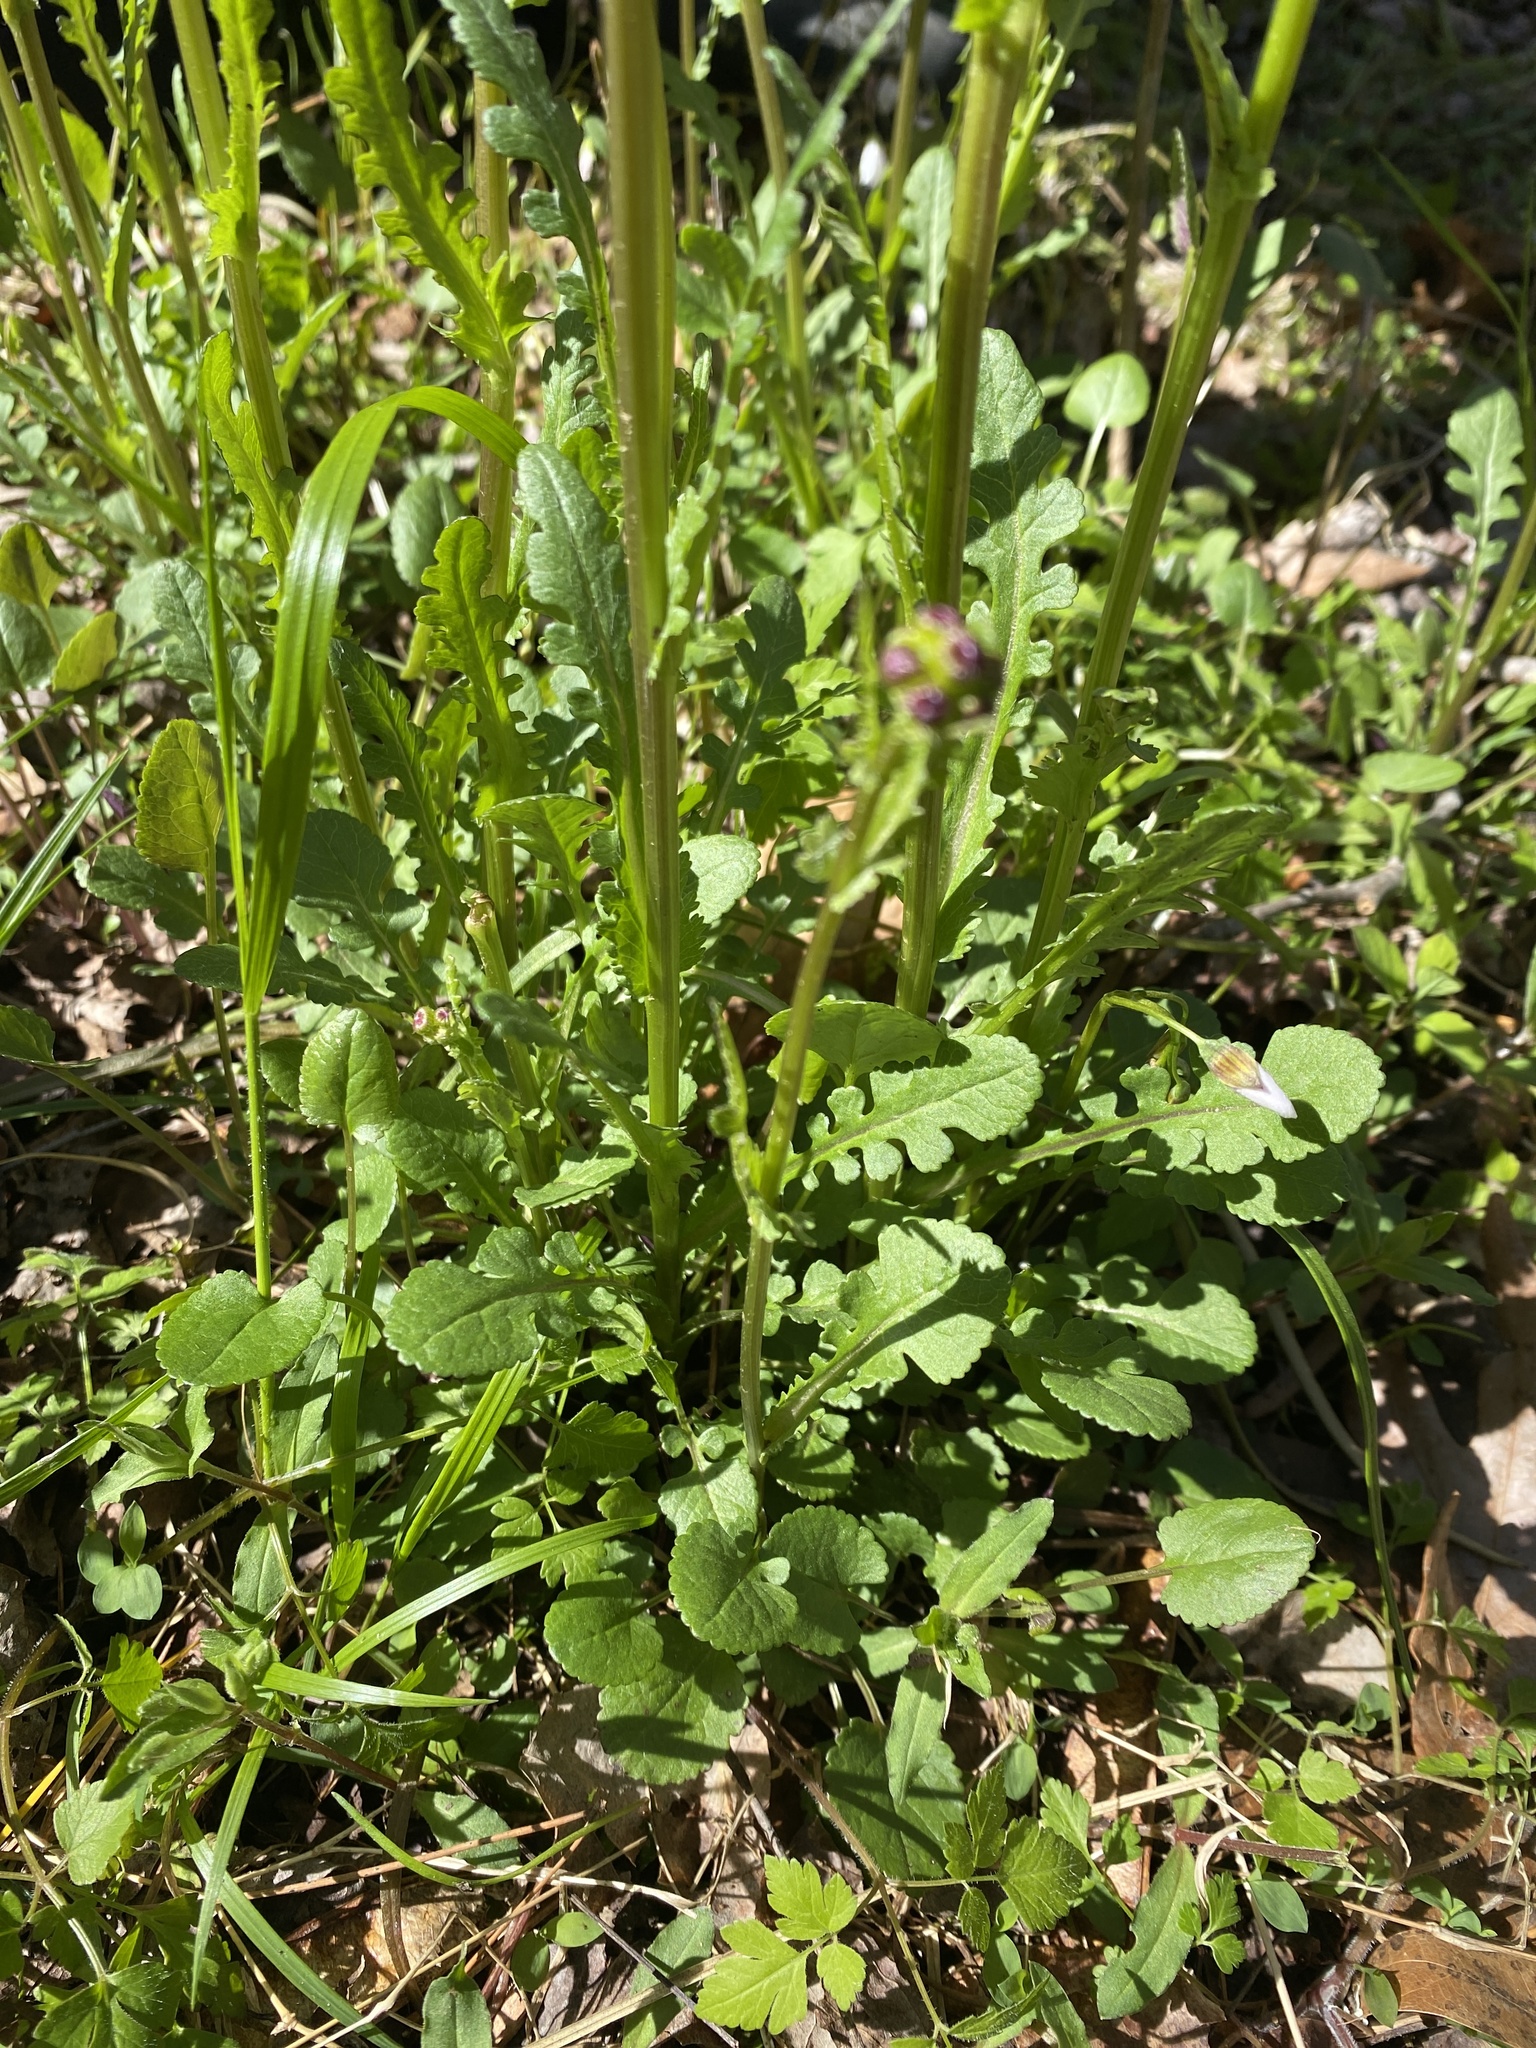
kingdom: Plantae
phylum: Tracheophyta
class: Magnoliopsida
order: Asterales
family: Asteraceae
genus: Packera
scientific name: Packera aurea
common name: Golden groundsel
